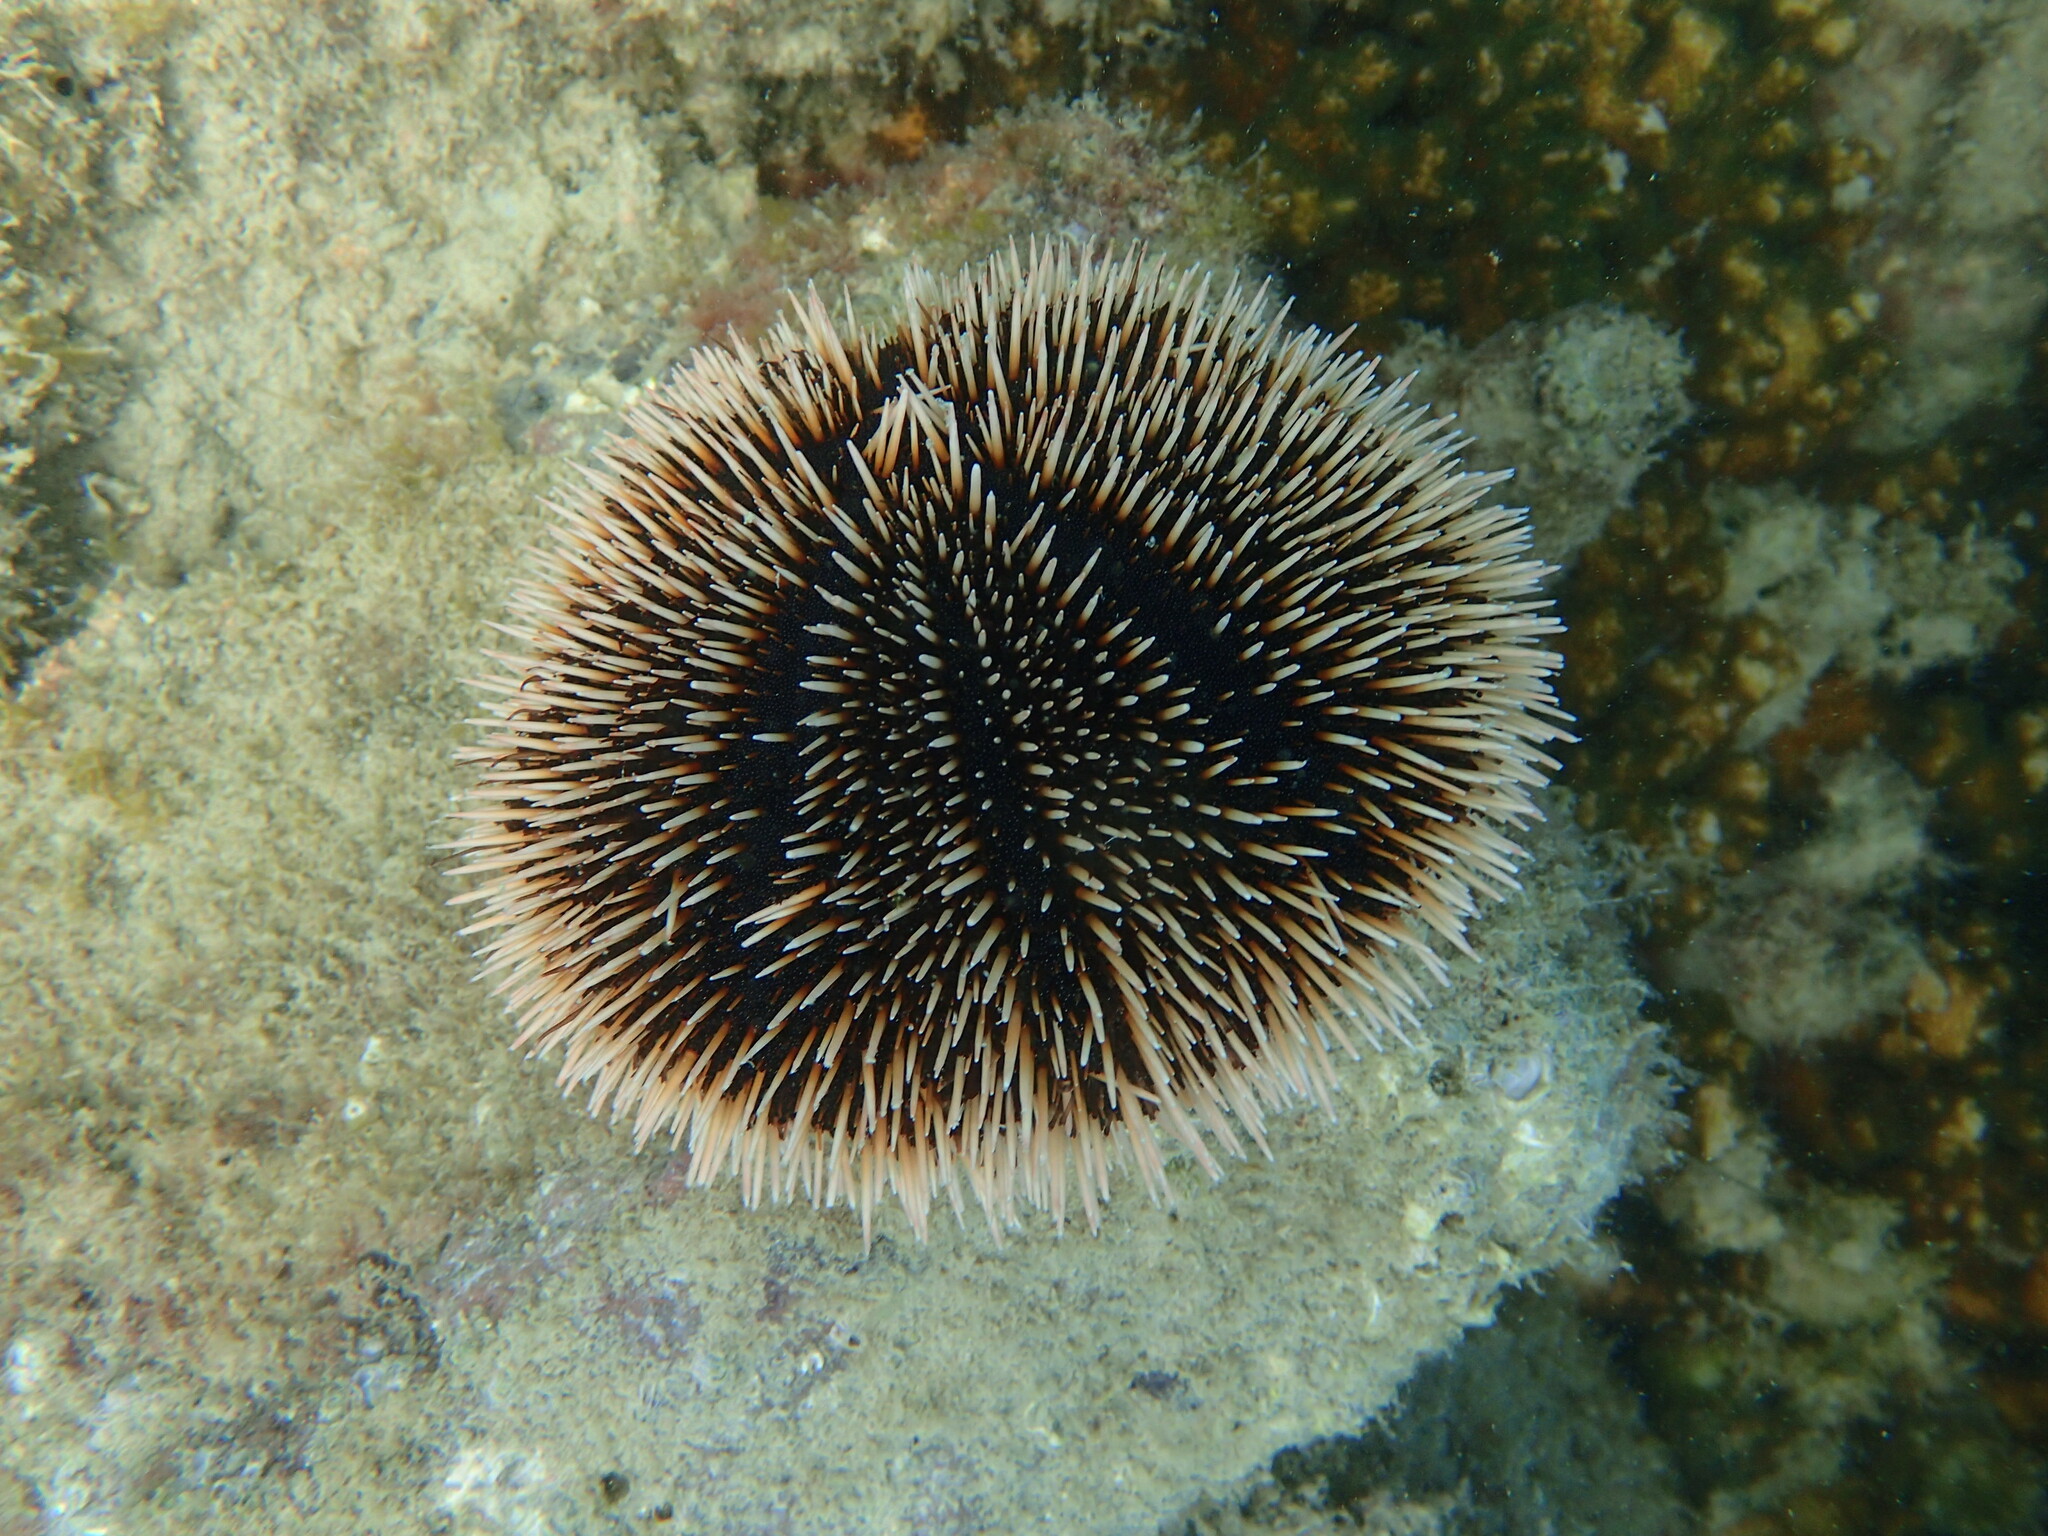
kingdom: Animalia
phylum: Echinodermata
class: Echinoidea
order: Camarodonta
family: Toxopneustidae
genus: Tripneustes
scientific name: Tripneustes depressus
